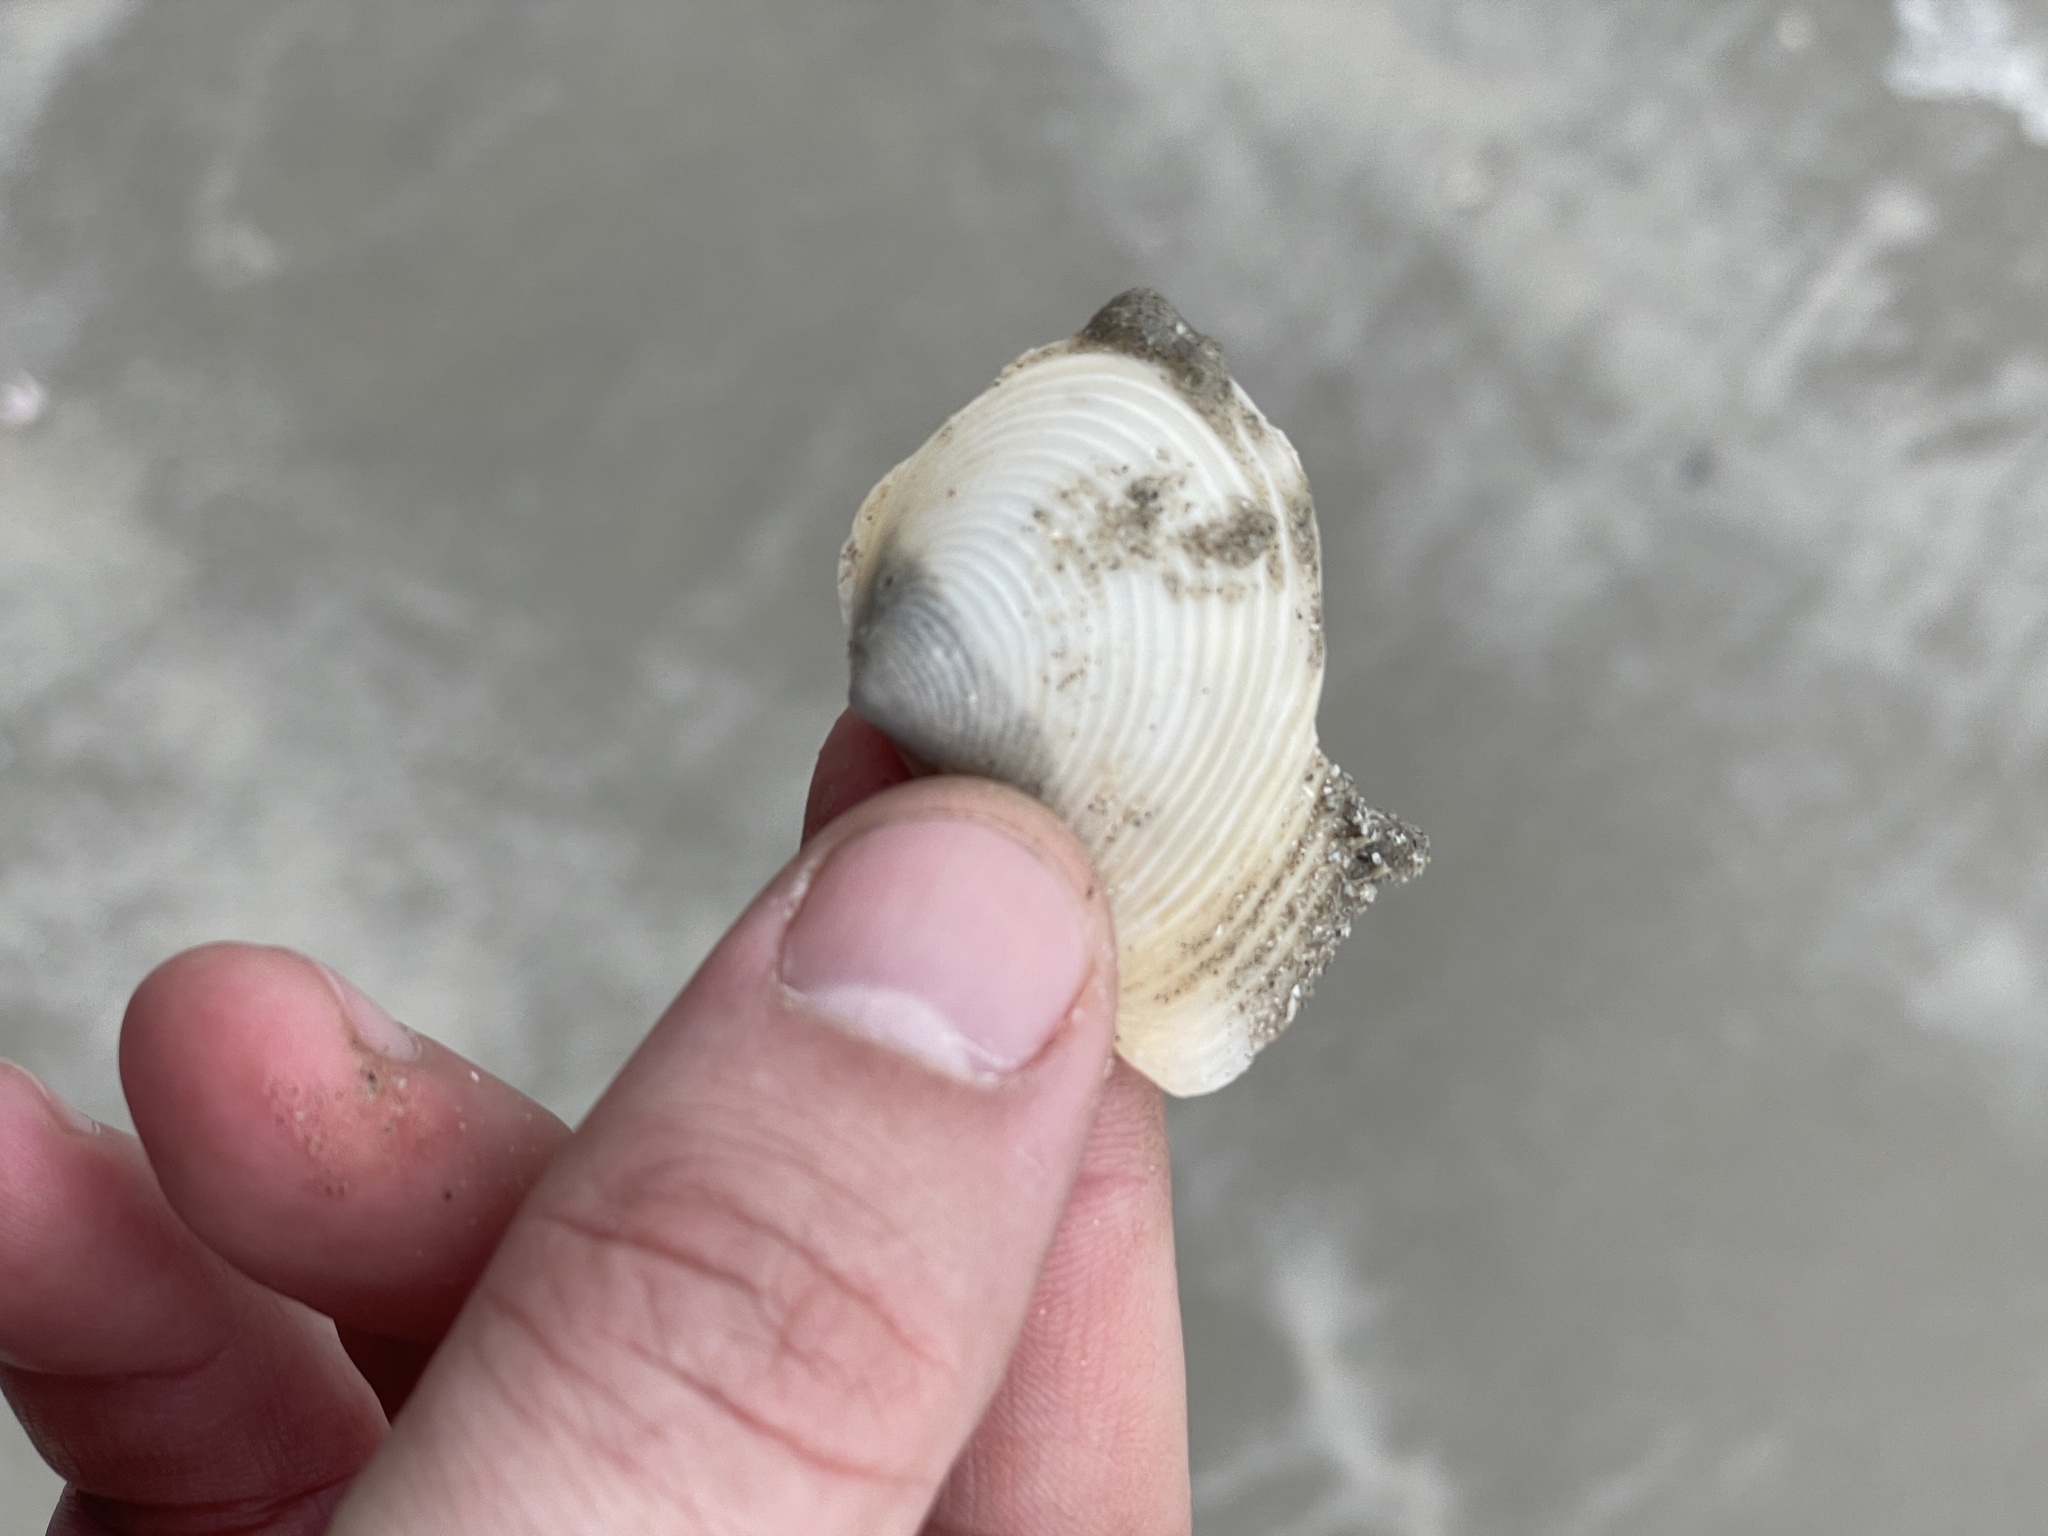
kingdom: Animalia
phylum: Mollusca
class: Bivalvia
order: Venerida
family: Anatinellidae
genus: Raeta
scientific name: Raeta plicatella
